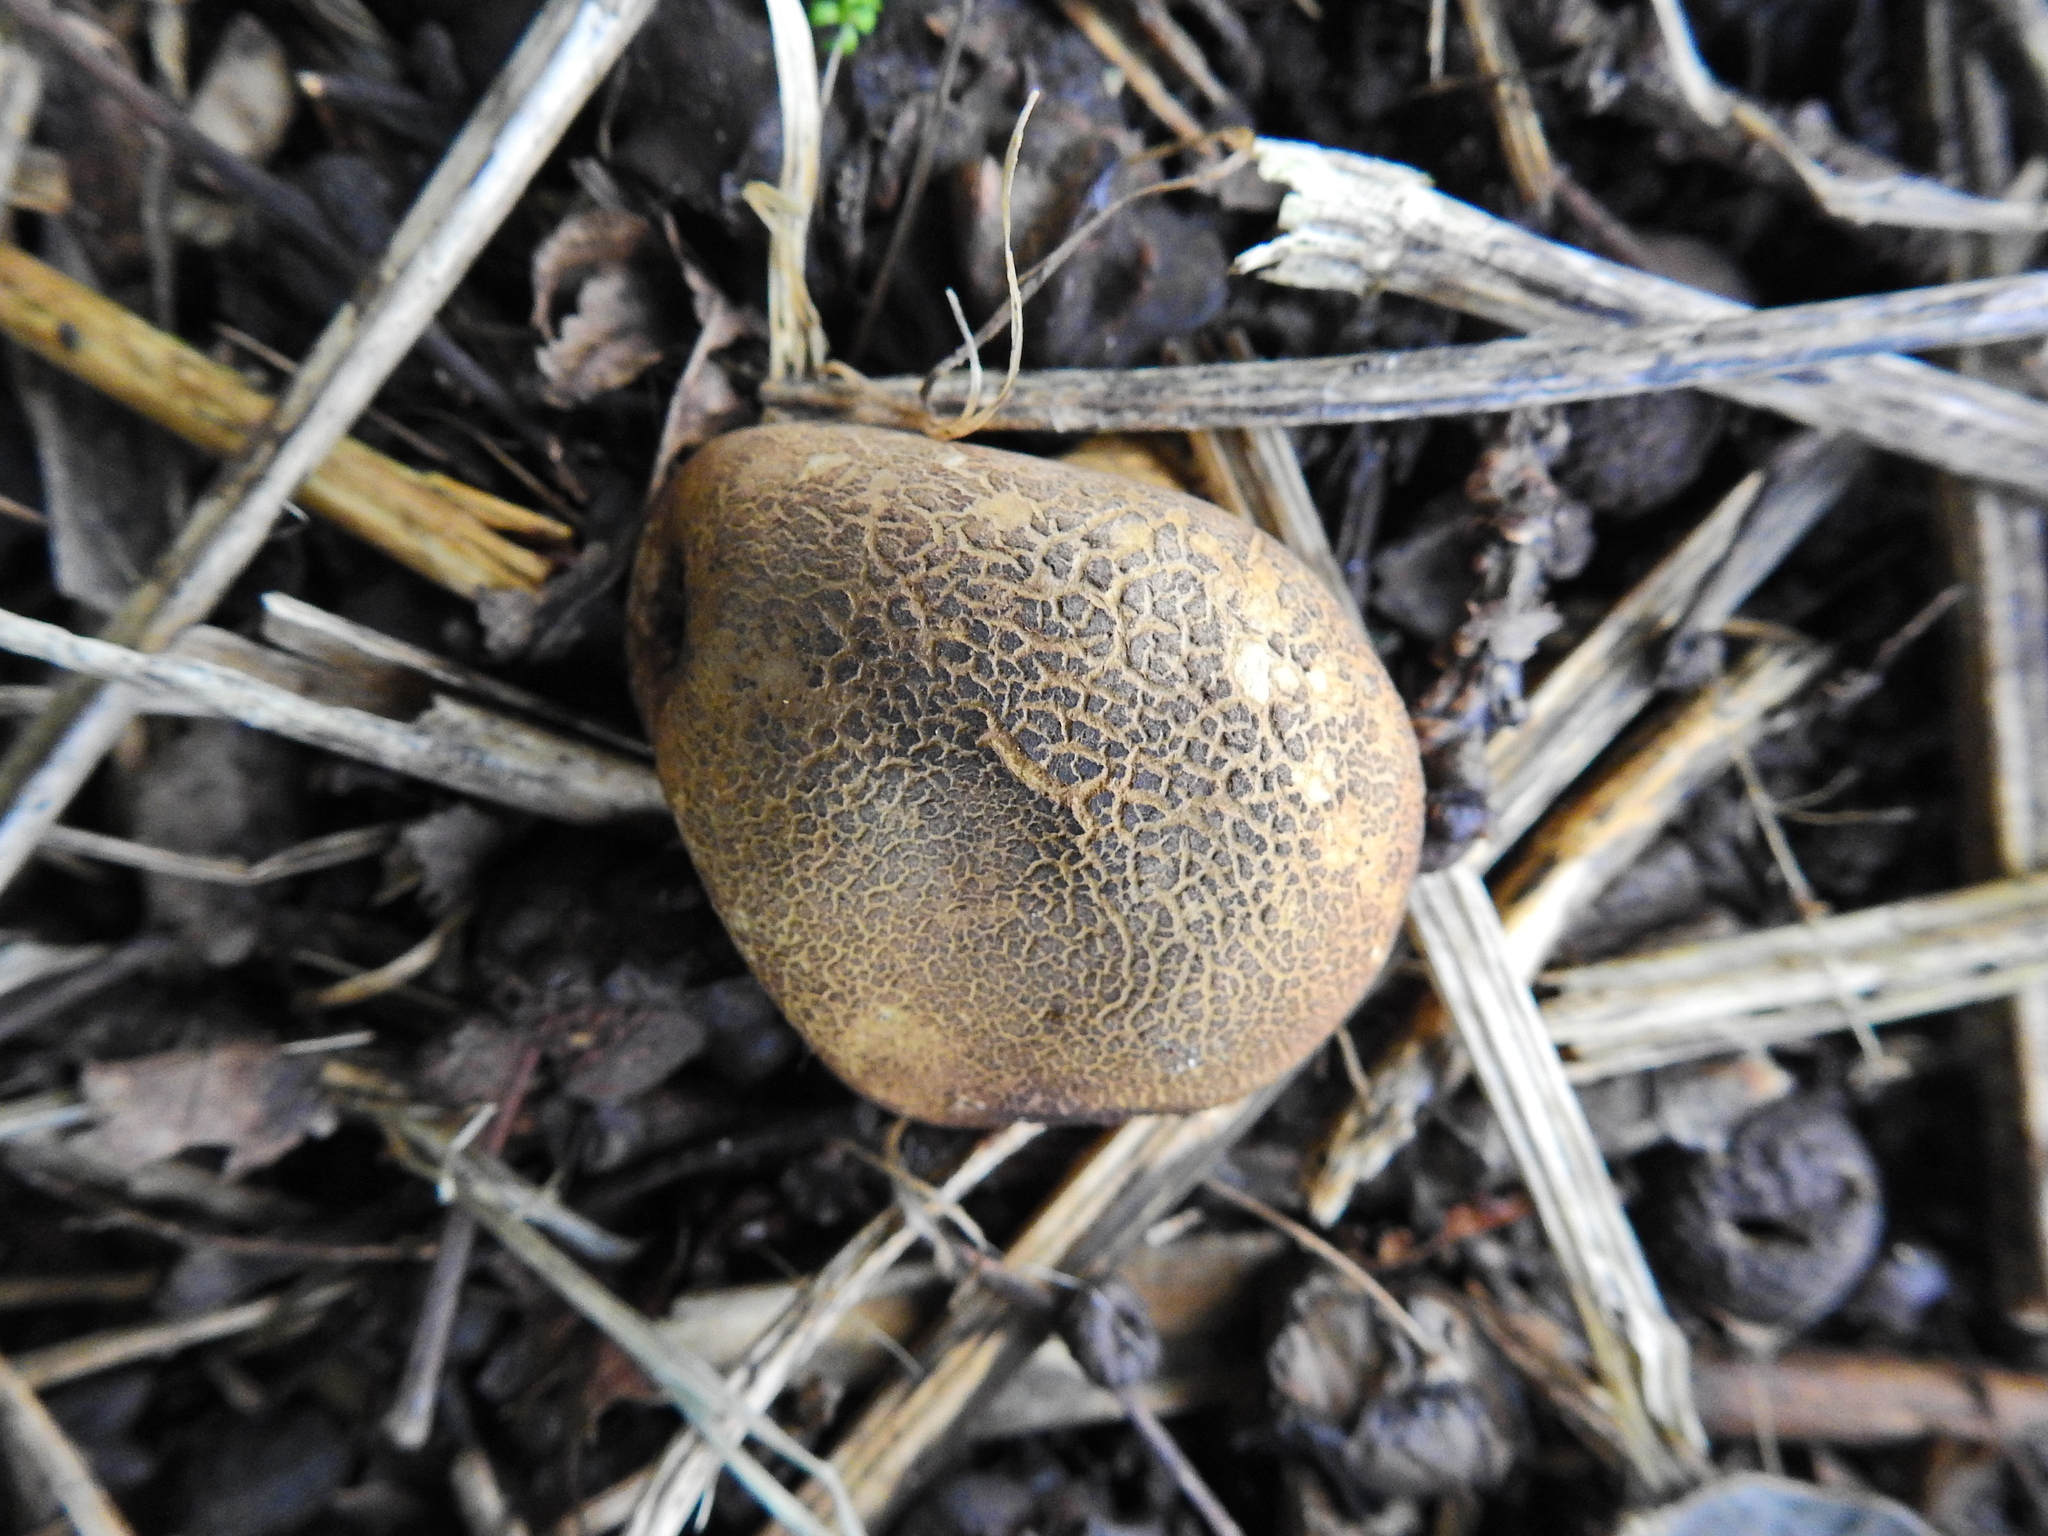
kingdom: Fungi
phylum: Basidiomycota
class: Agaricomycetes
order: Boletales
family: Sclerodermataceae
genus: Scleroderma
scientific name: Scleroderma citrinum
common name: Common earthball
